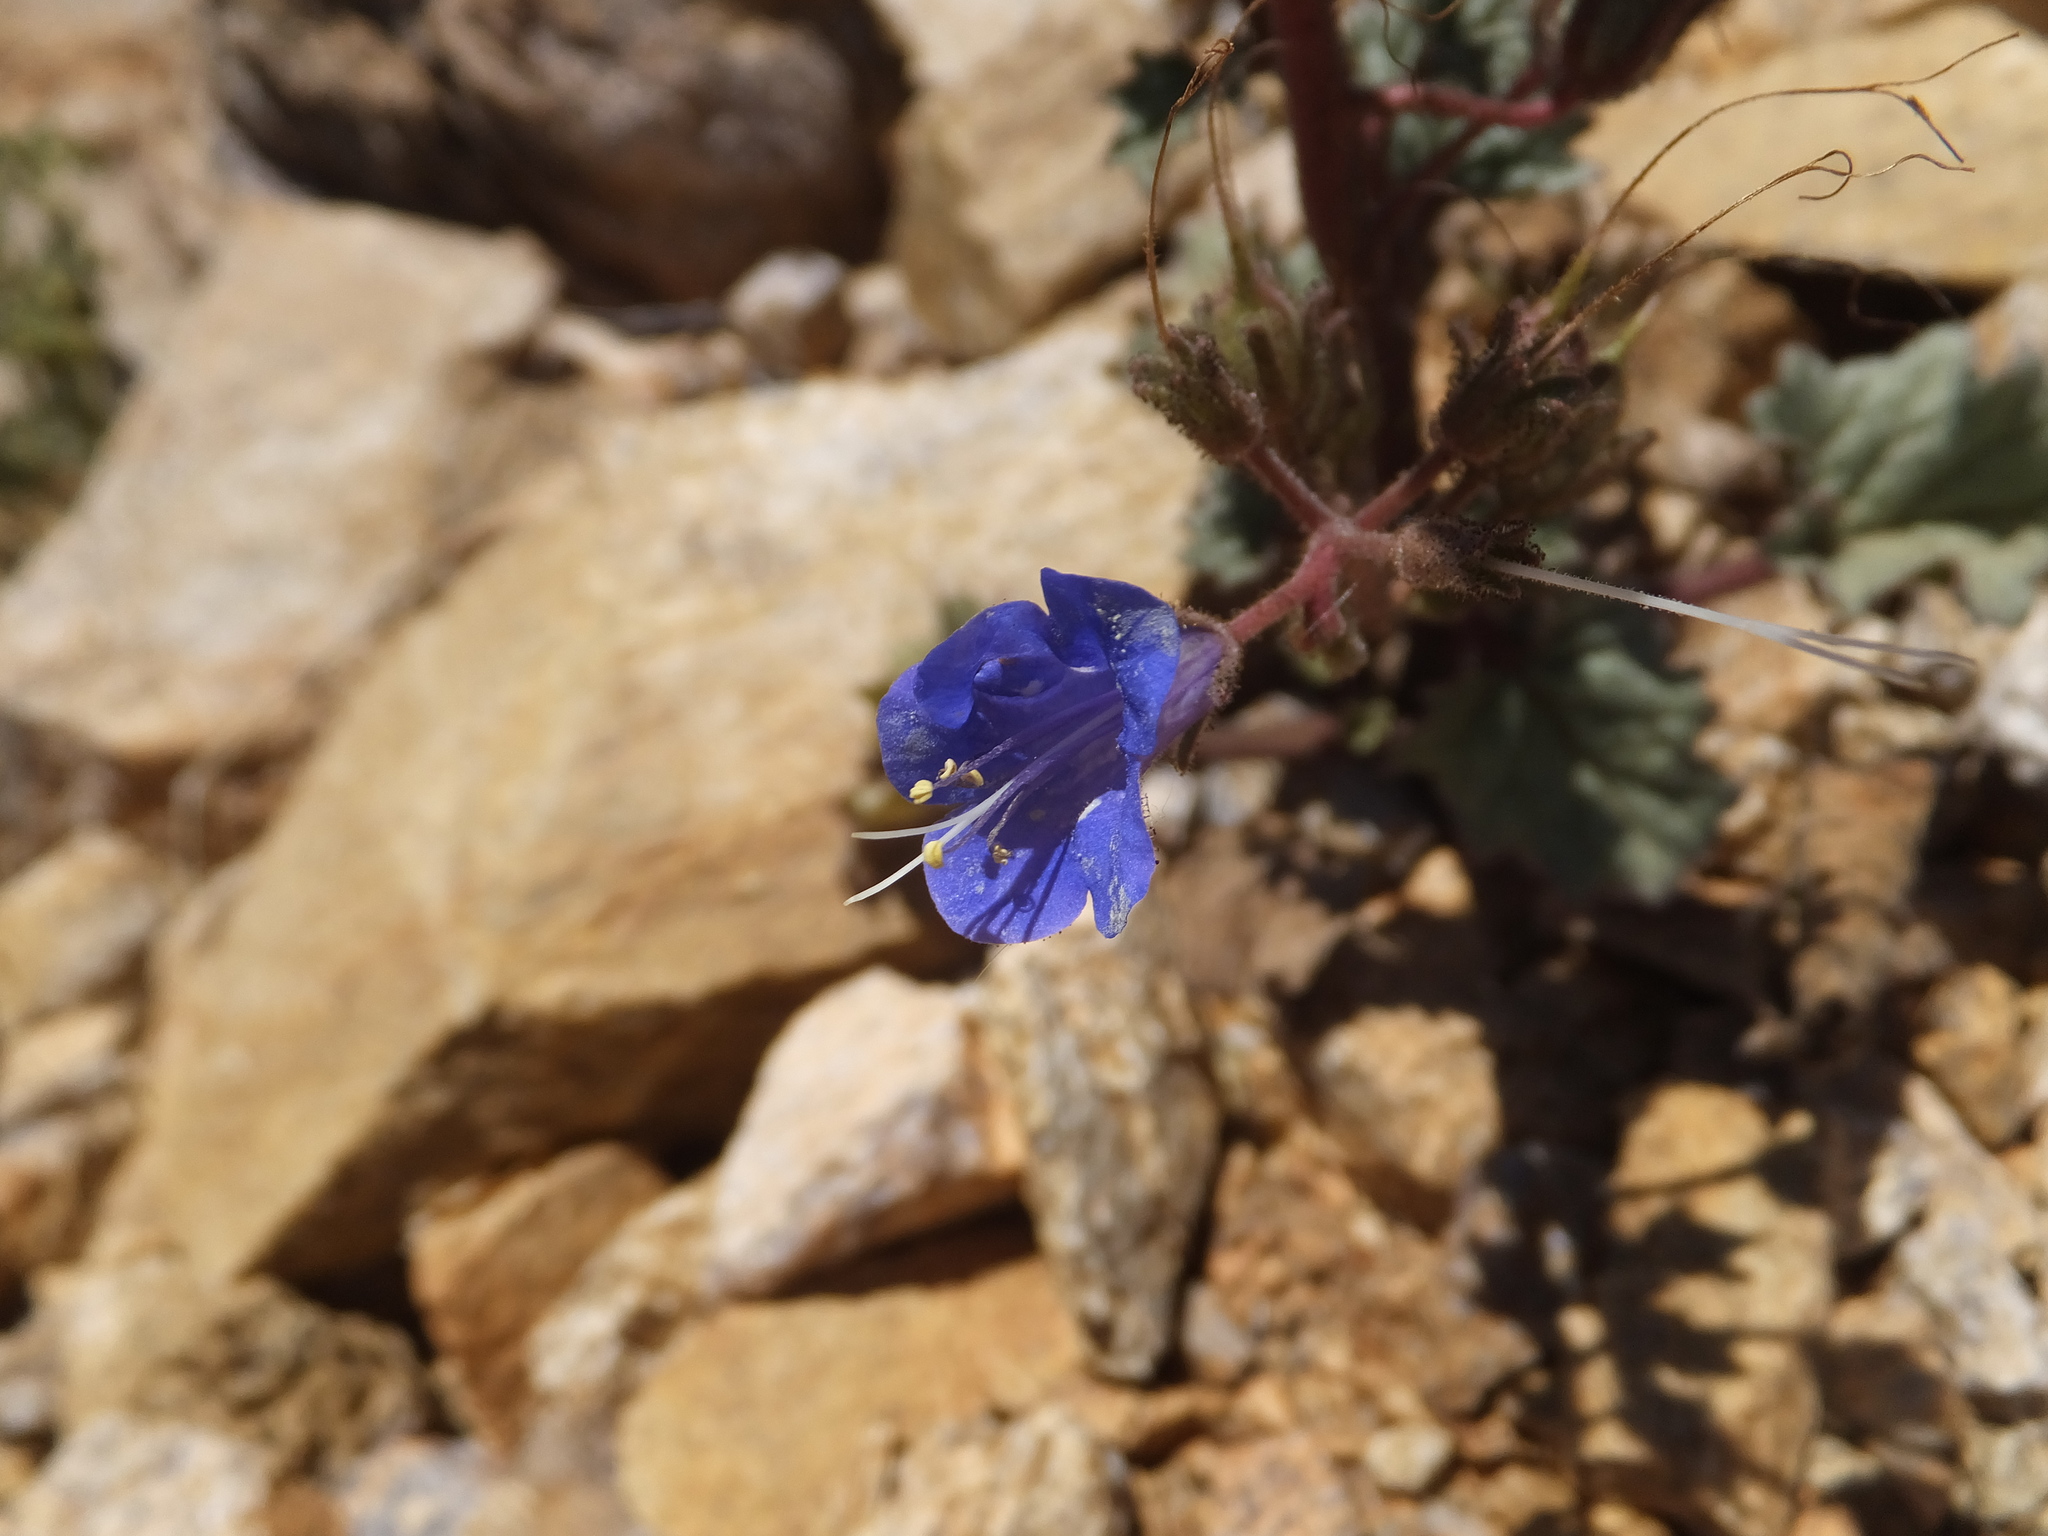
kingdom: Plantae
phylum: Tracheophyta
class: Magnoliopsida
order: Boraginales
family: Hydrophyllaceae
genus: Phacelia
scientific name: Phacelia campanularia
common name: California bluebell
